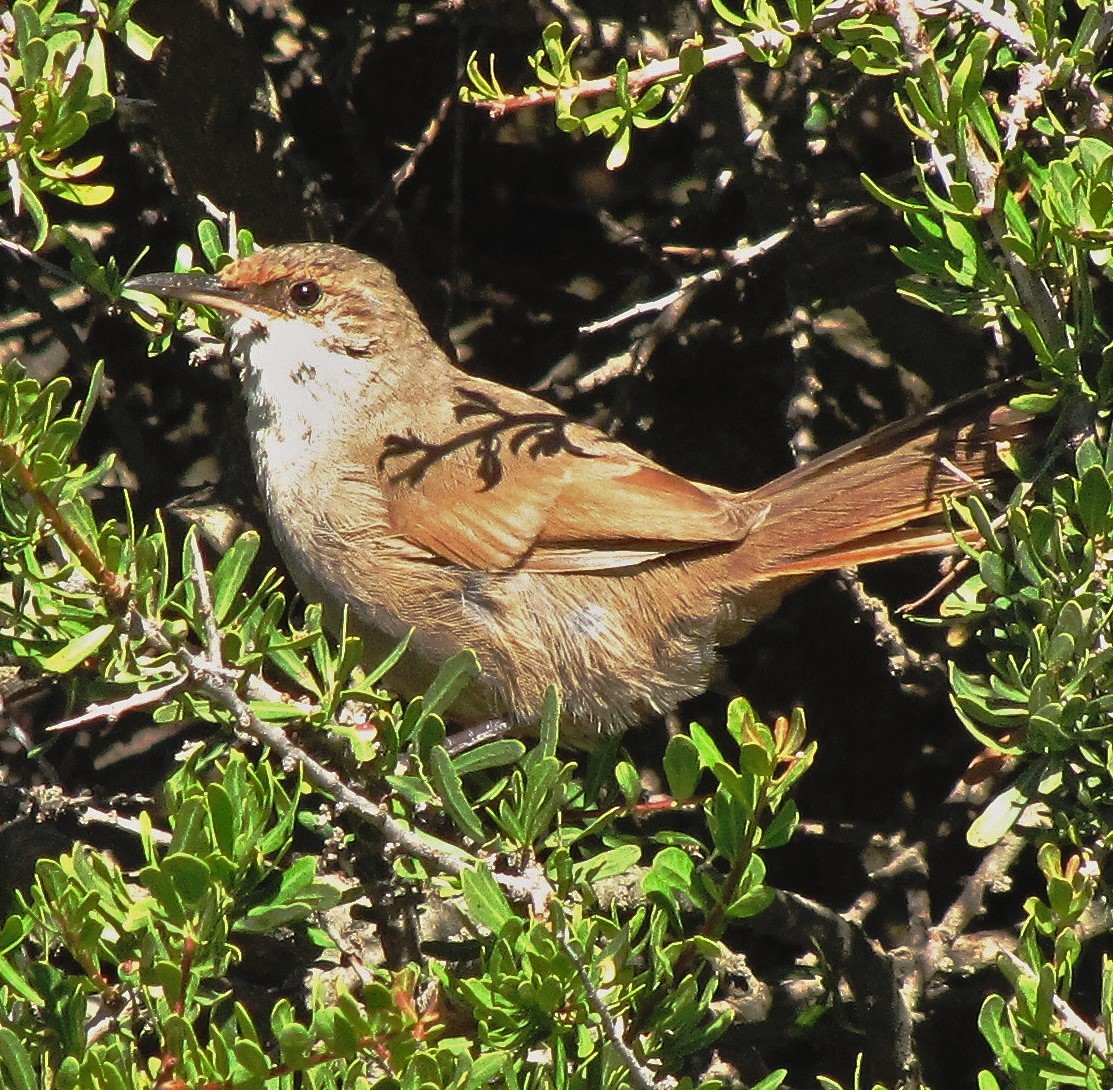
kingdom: Animalia
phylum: Chordata
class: Aves
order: Passeriformes
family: Furnariidae
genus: Upucerthia
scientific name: Upucerthia certhioides
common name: Chaco earthcreeper
